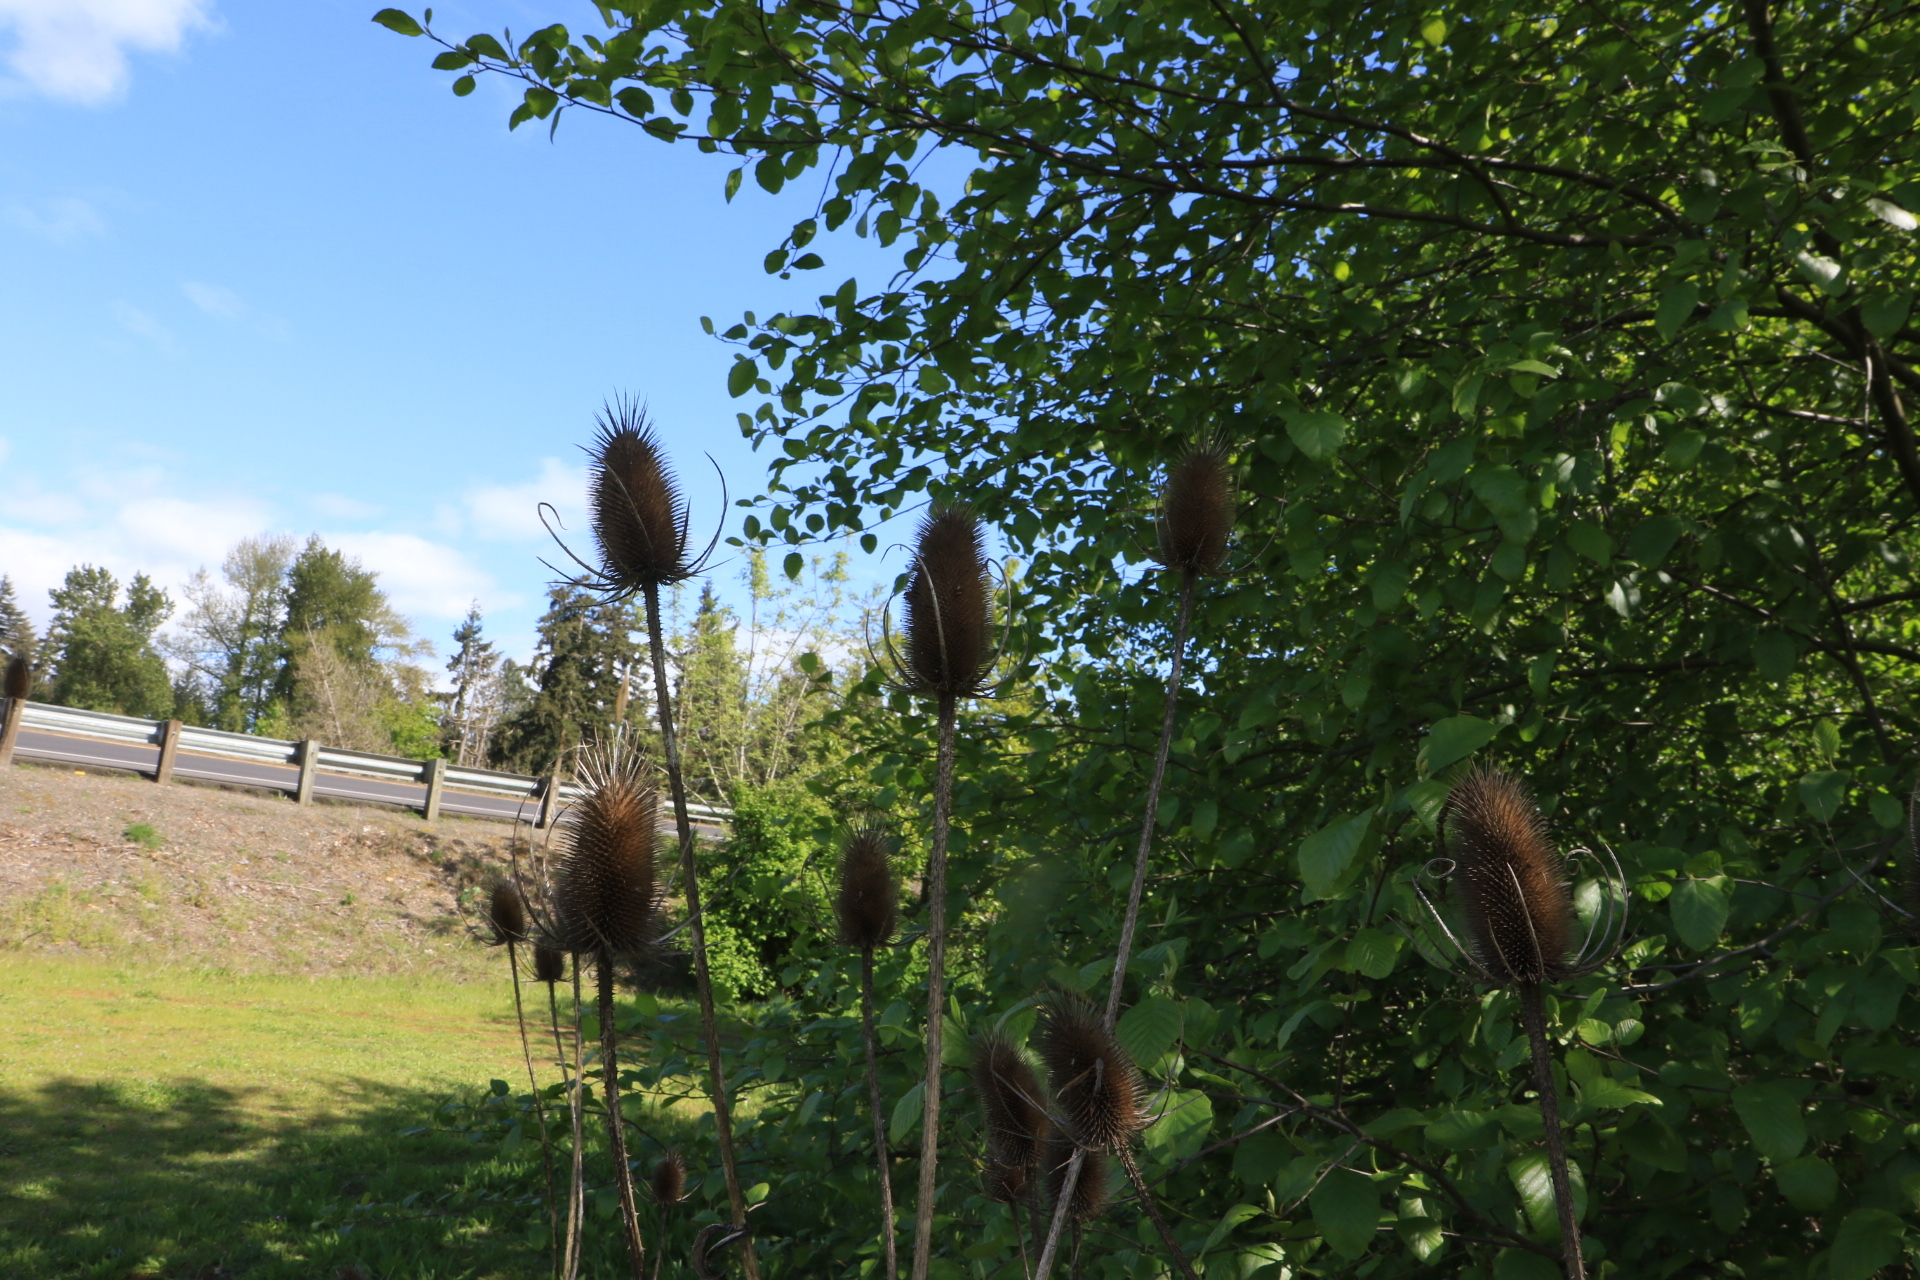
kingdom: Plantae
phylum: Tracheophyta
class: Magnoliopsida
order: Dipsacales
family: Caprifoliaceae
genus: Dipsacus
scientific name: Dipsacus fullonum
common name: Teasel
